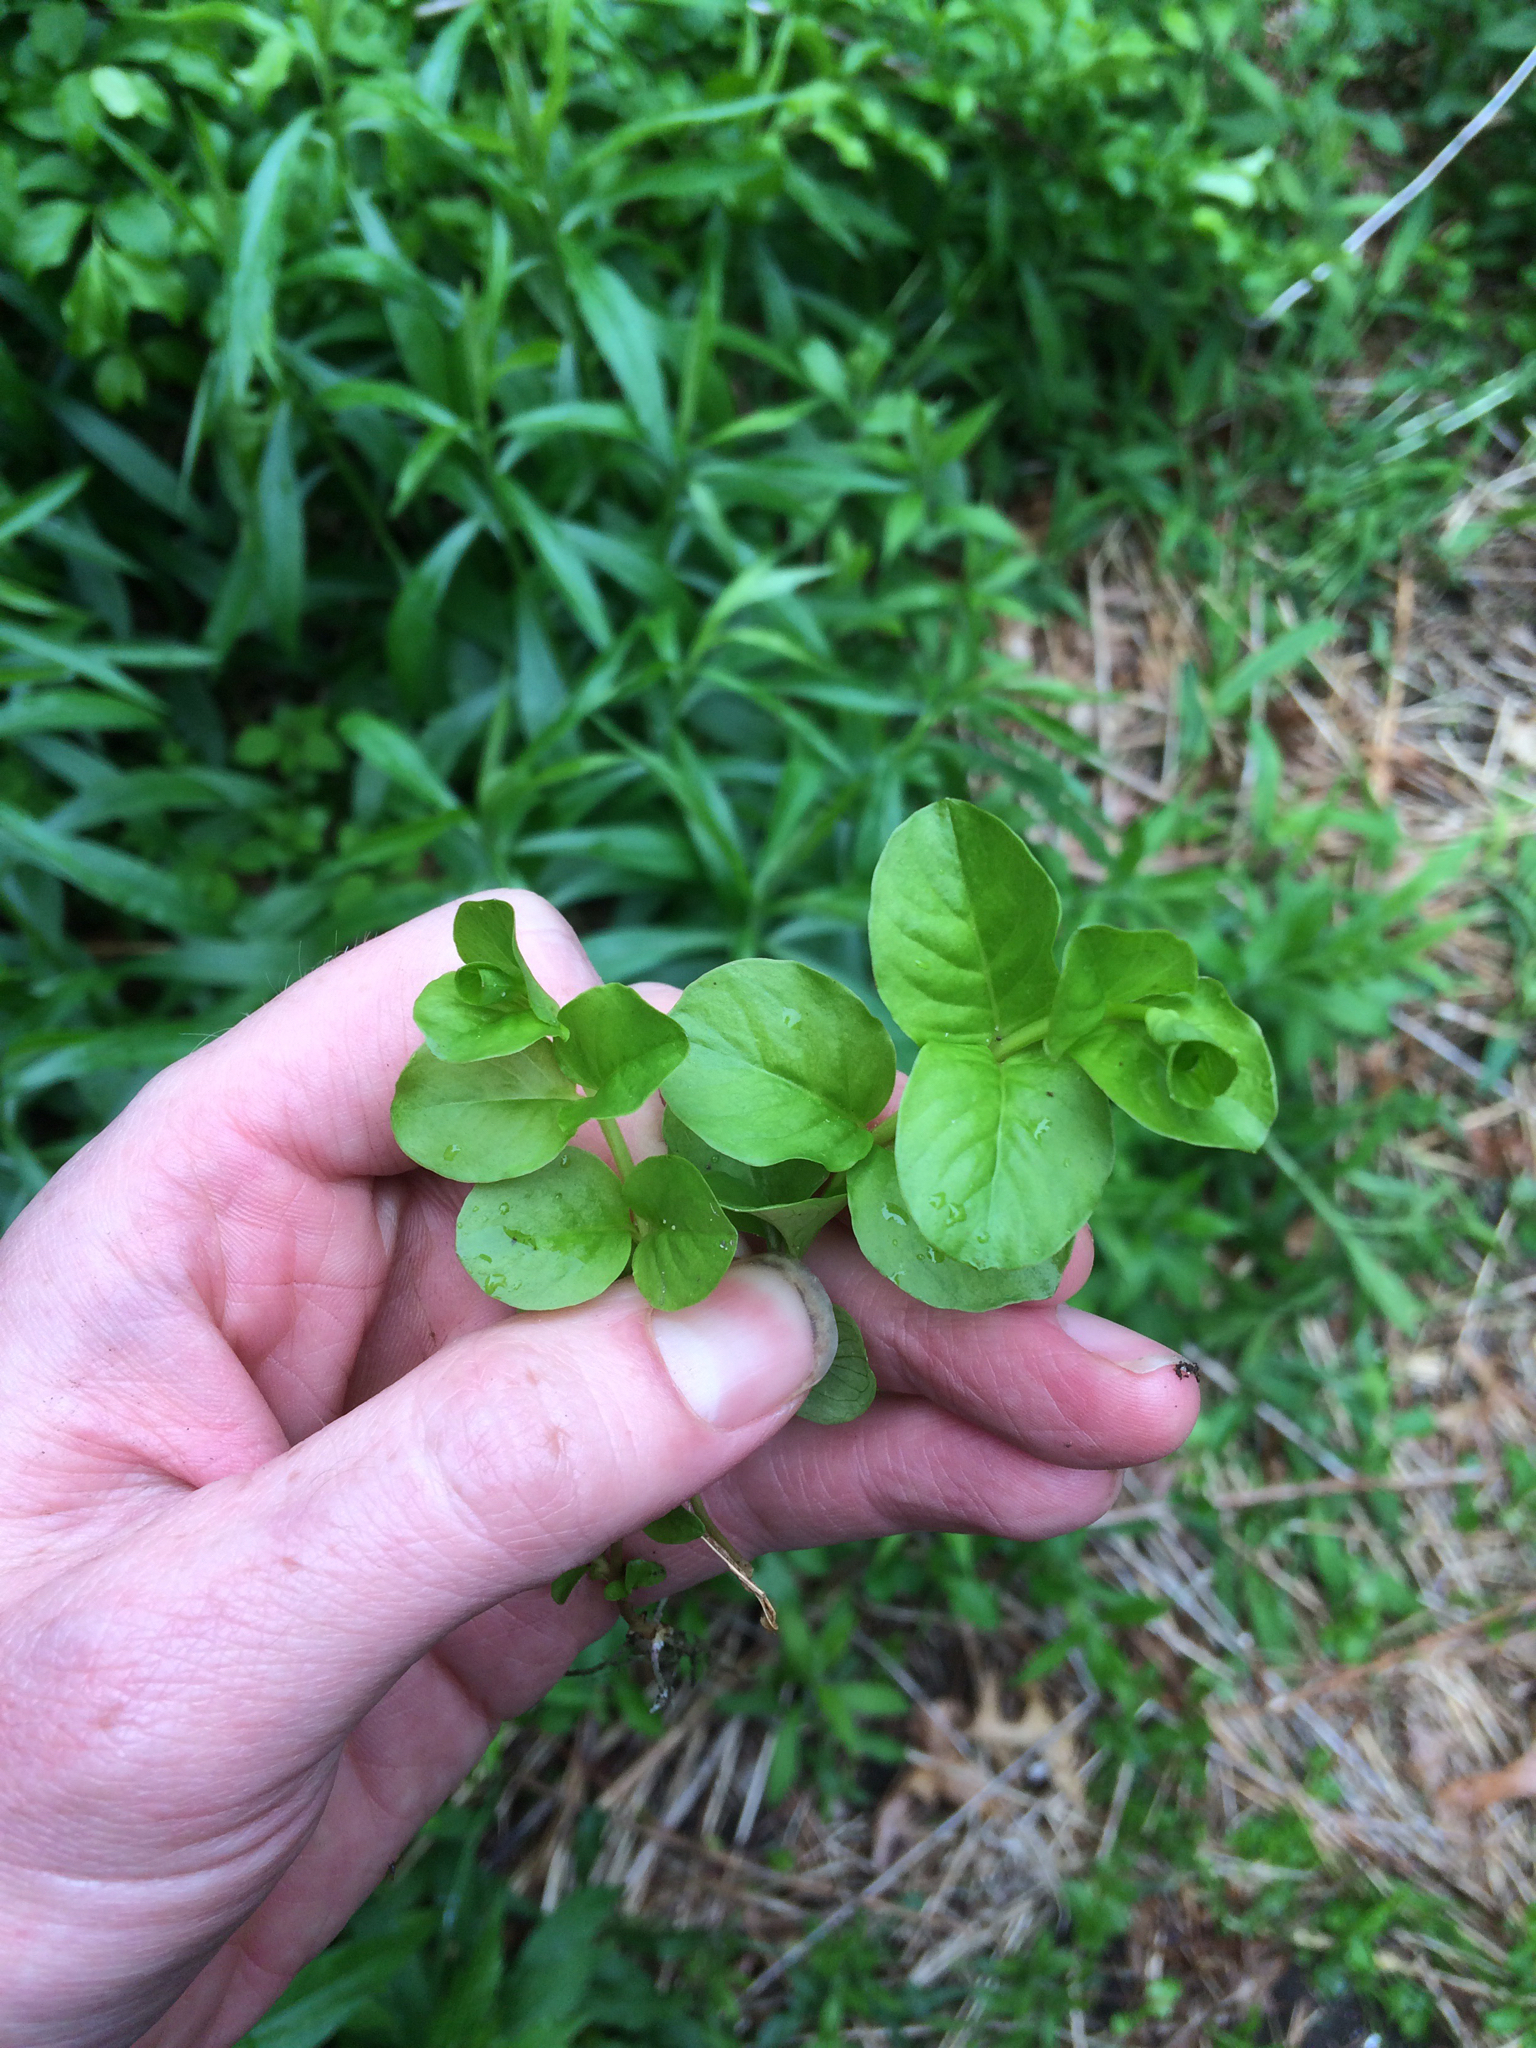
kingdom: Plantae
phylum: Tracheophyta
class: Magnoliopsida
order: Ericales
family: Primulaceae
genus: Lysimachia
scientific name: Lysimachia nummularia
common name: Moneywort
